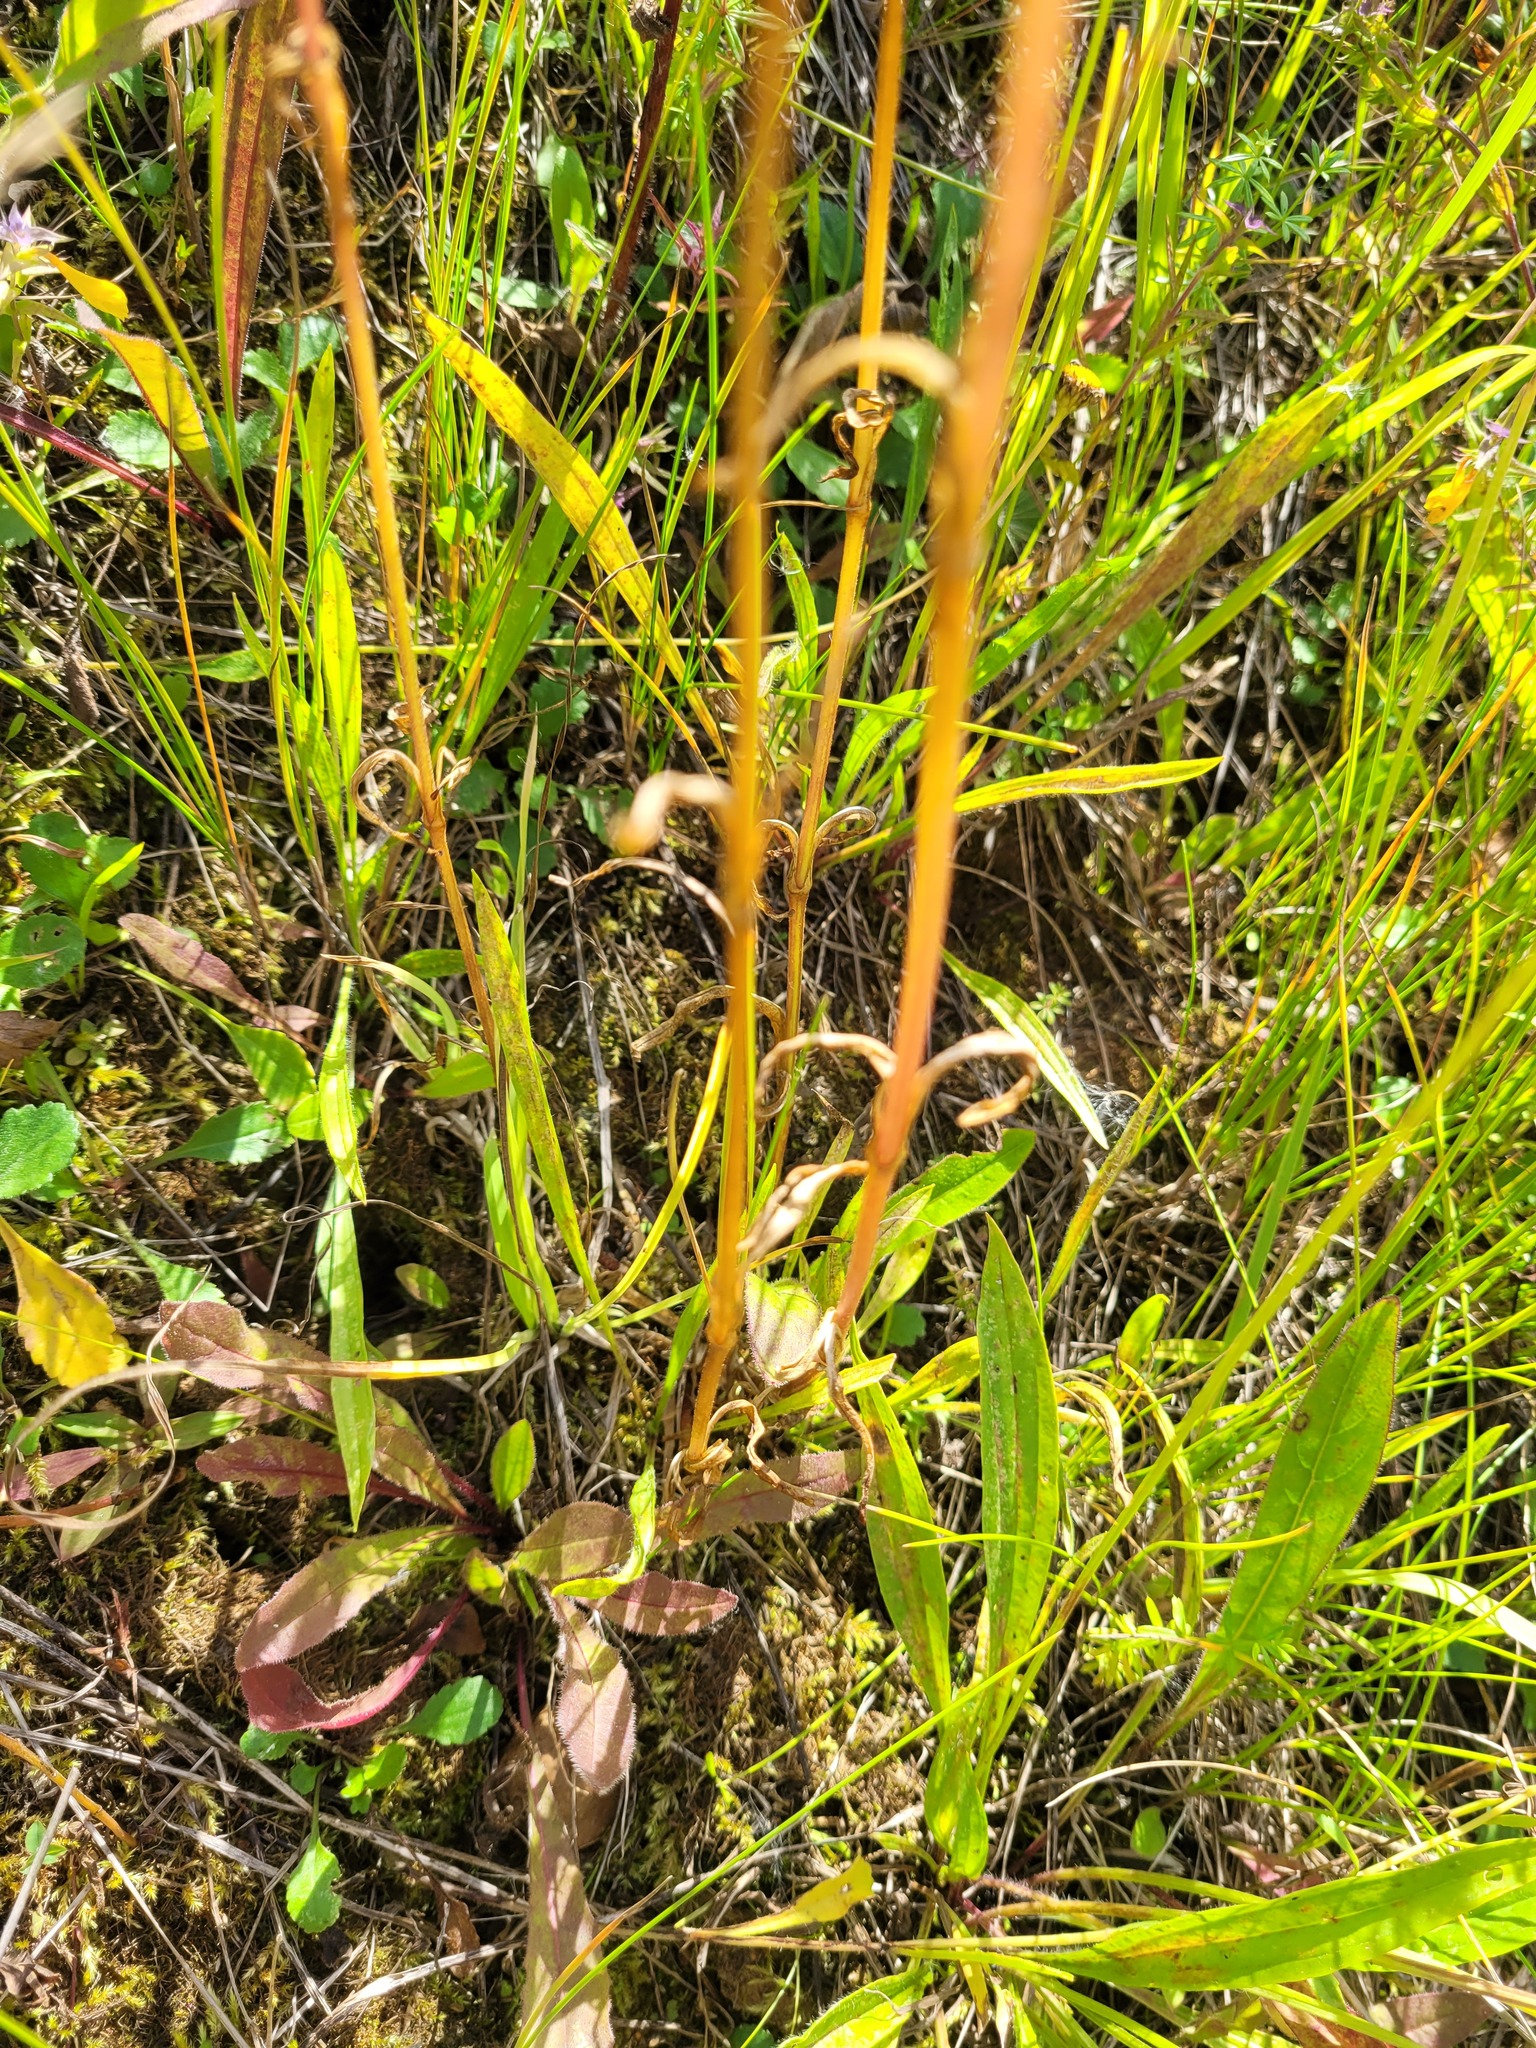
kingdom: Plantae
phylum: Tracheophyta
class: Magnoliopsida
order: Caryophyllales
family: Caryophyllaceae
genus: Silene
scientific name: Silene flos-cuculi
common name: Ragged-robin
